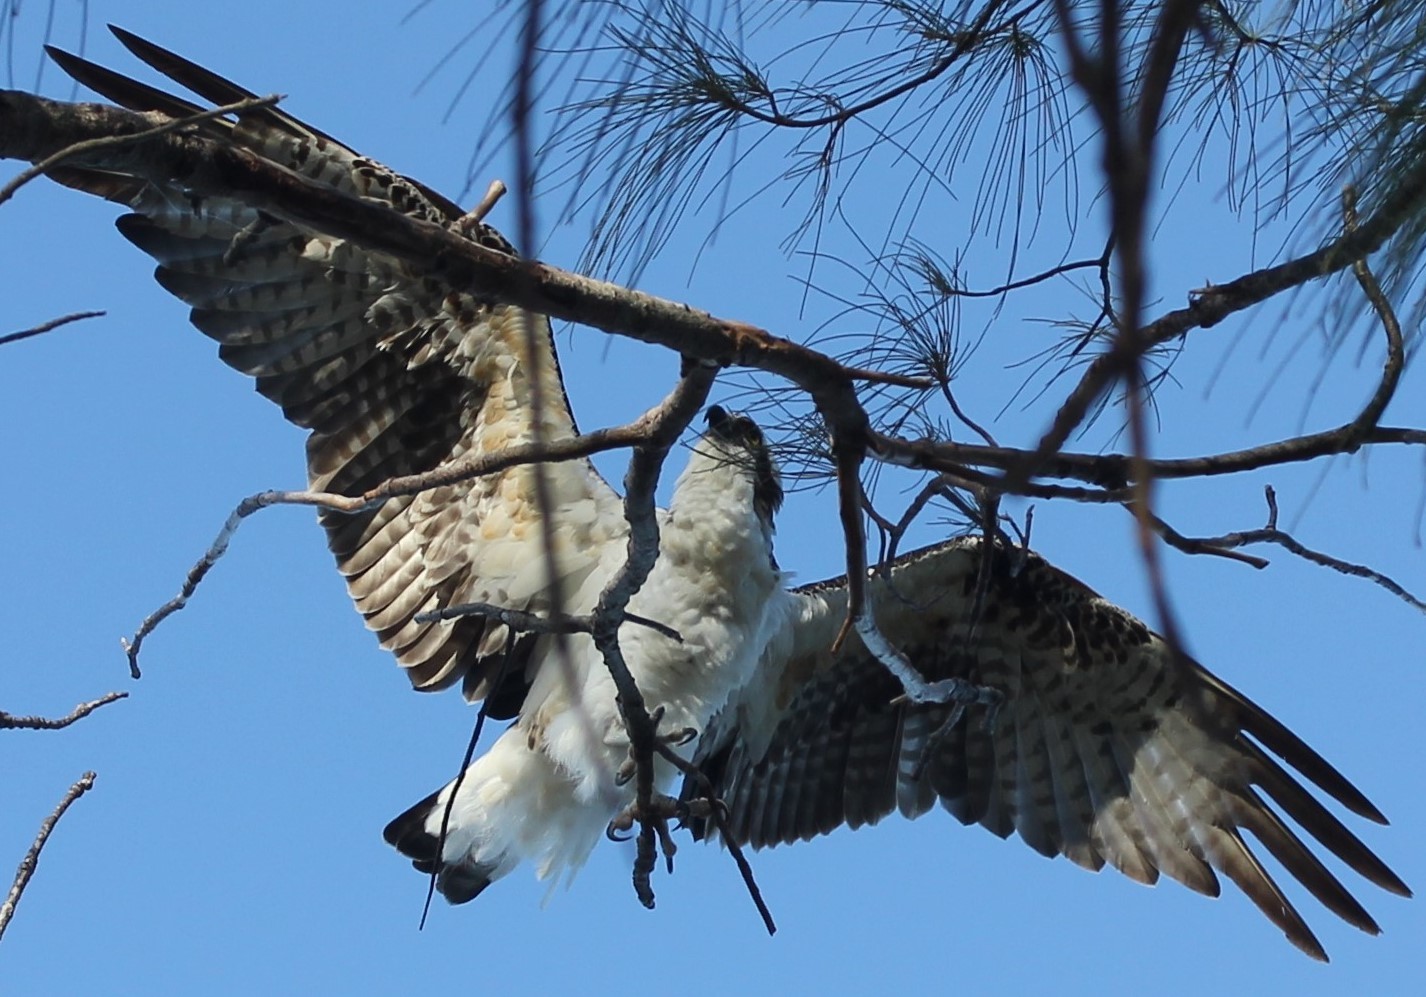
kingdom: Animalia
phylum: Chordata
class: Aves
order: Accipitriformes
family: Pandionidae
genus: Pandion
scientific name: Pandion haliaetus
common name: Osprey
